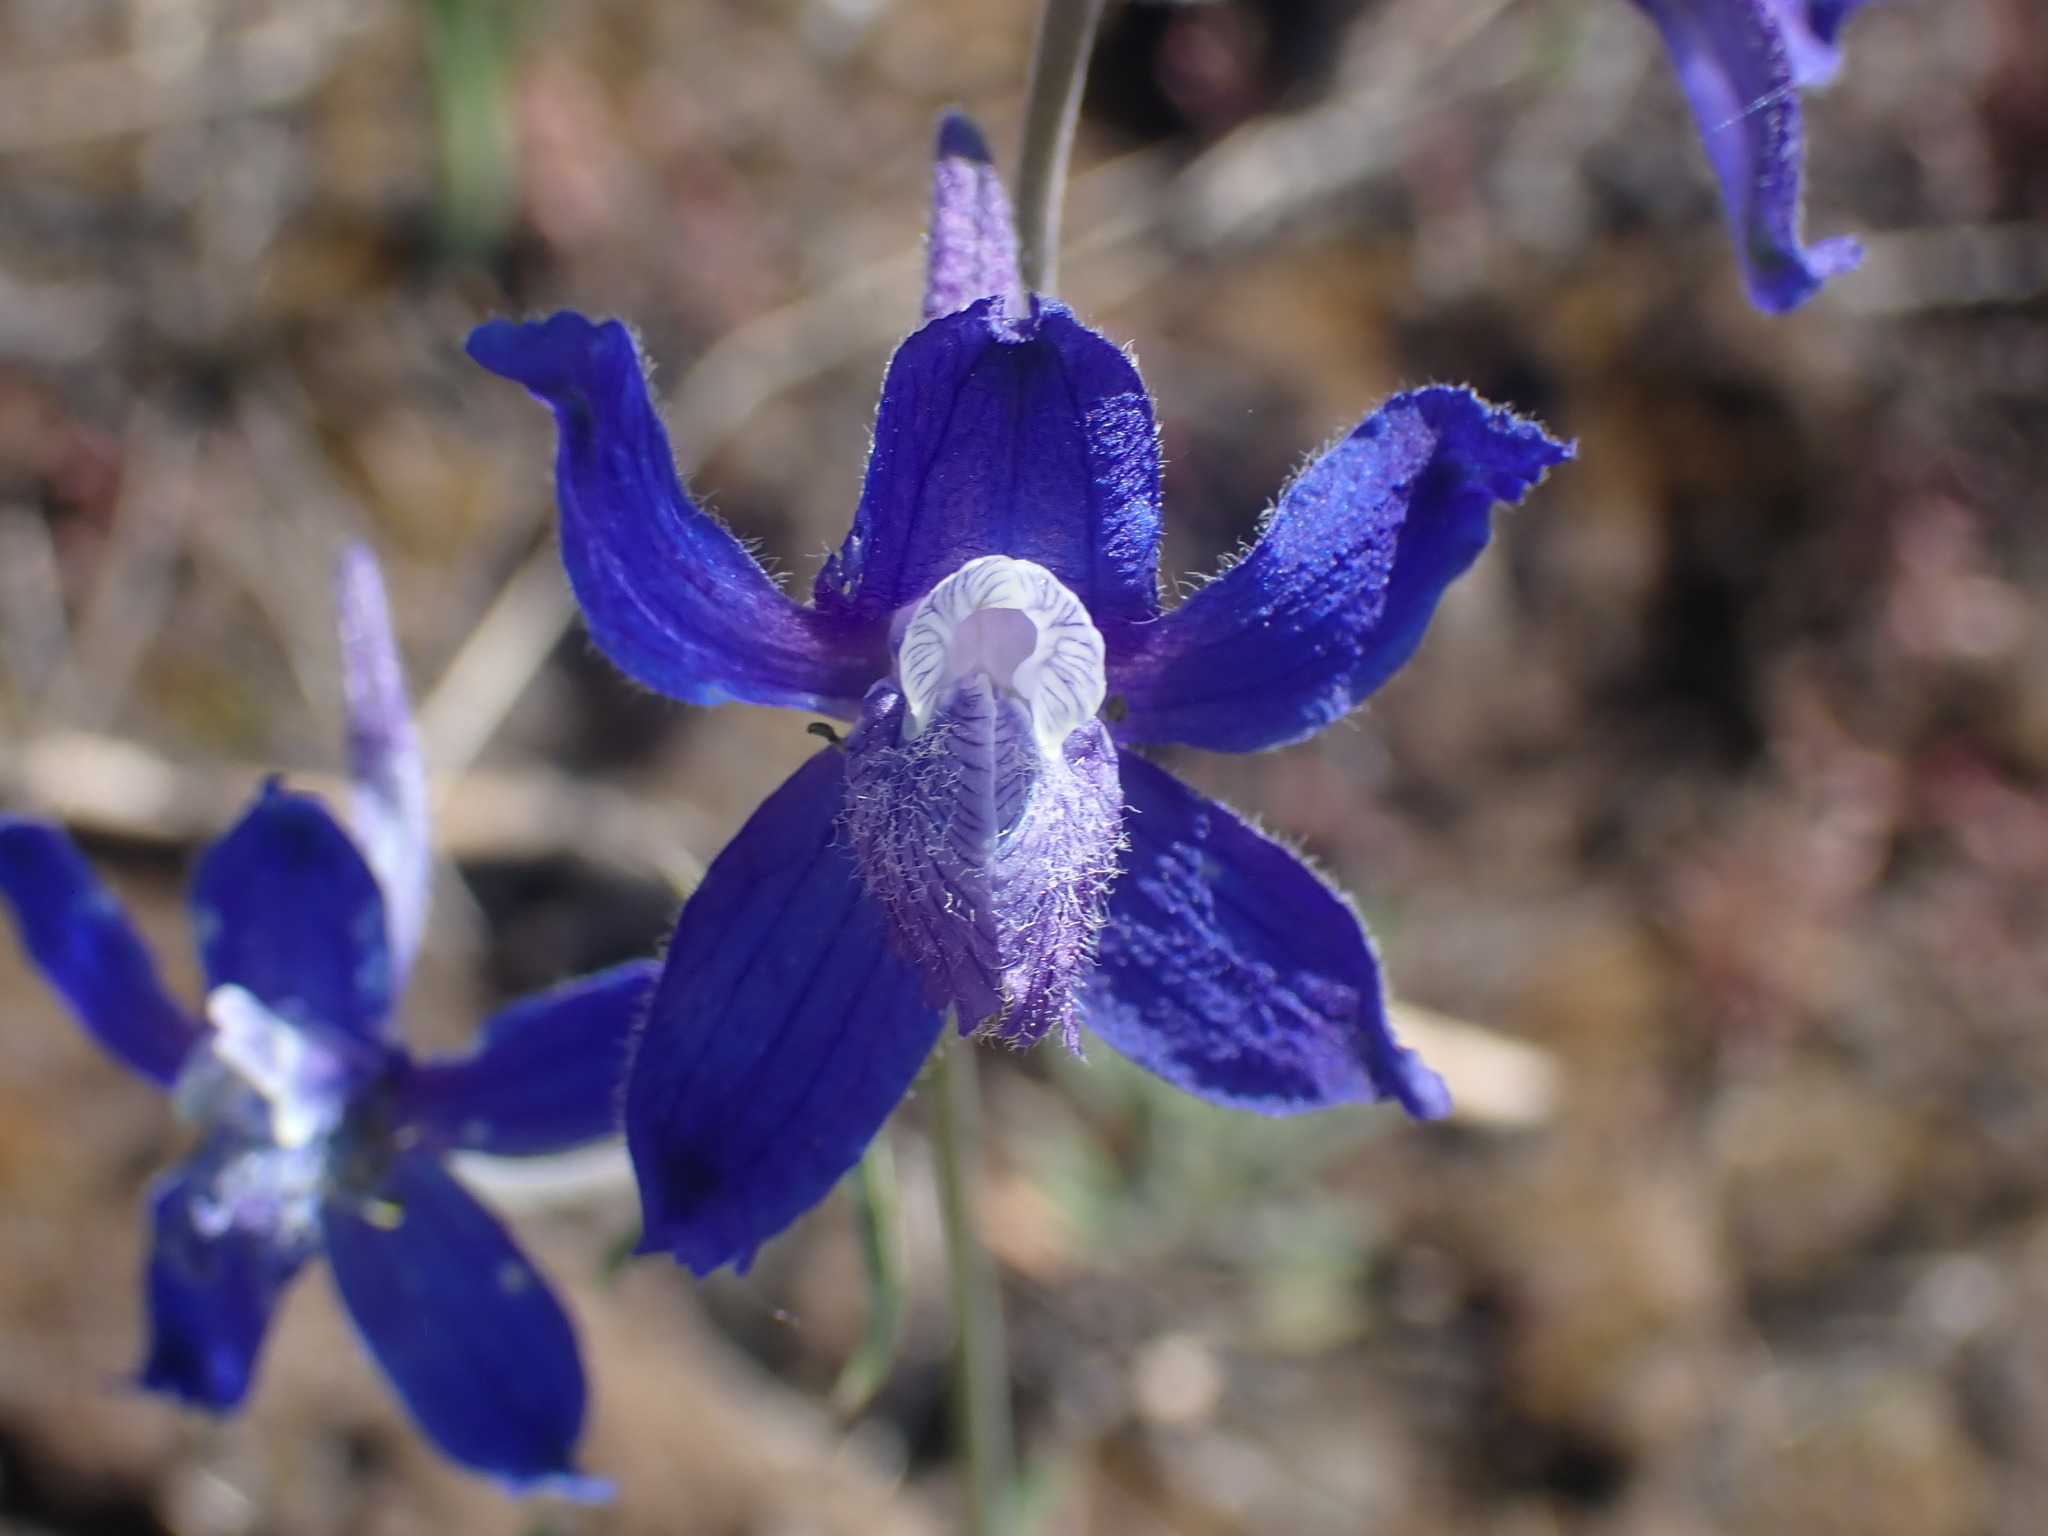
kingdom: Plantae
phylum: Tracheophyta
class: Magnoliopsida
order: Ranunculales
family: Ranunculaceae
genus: Delphinium
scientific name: Delphinium nuttallianum
